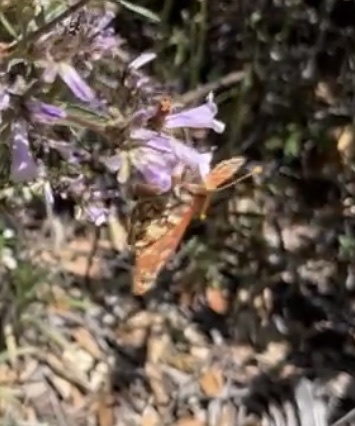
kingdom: Animalia
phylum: Arthropoda
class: Insecta
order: Lepidoptera
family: Nymphalidae
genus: Occidryas
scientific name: Occidryas chalcedona
